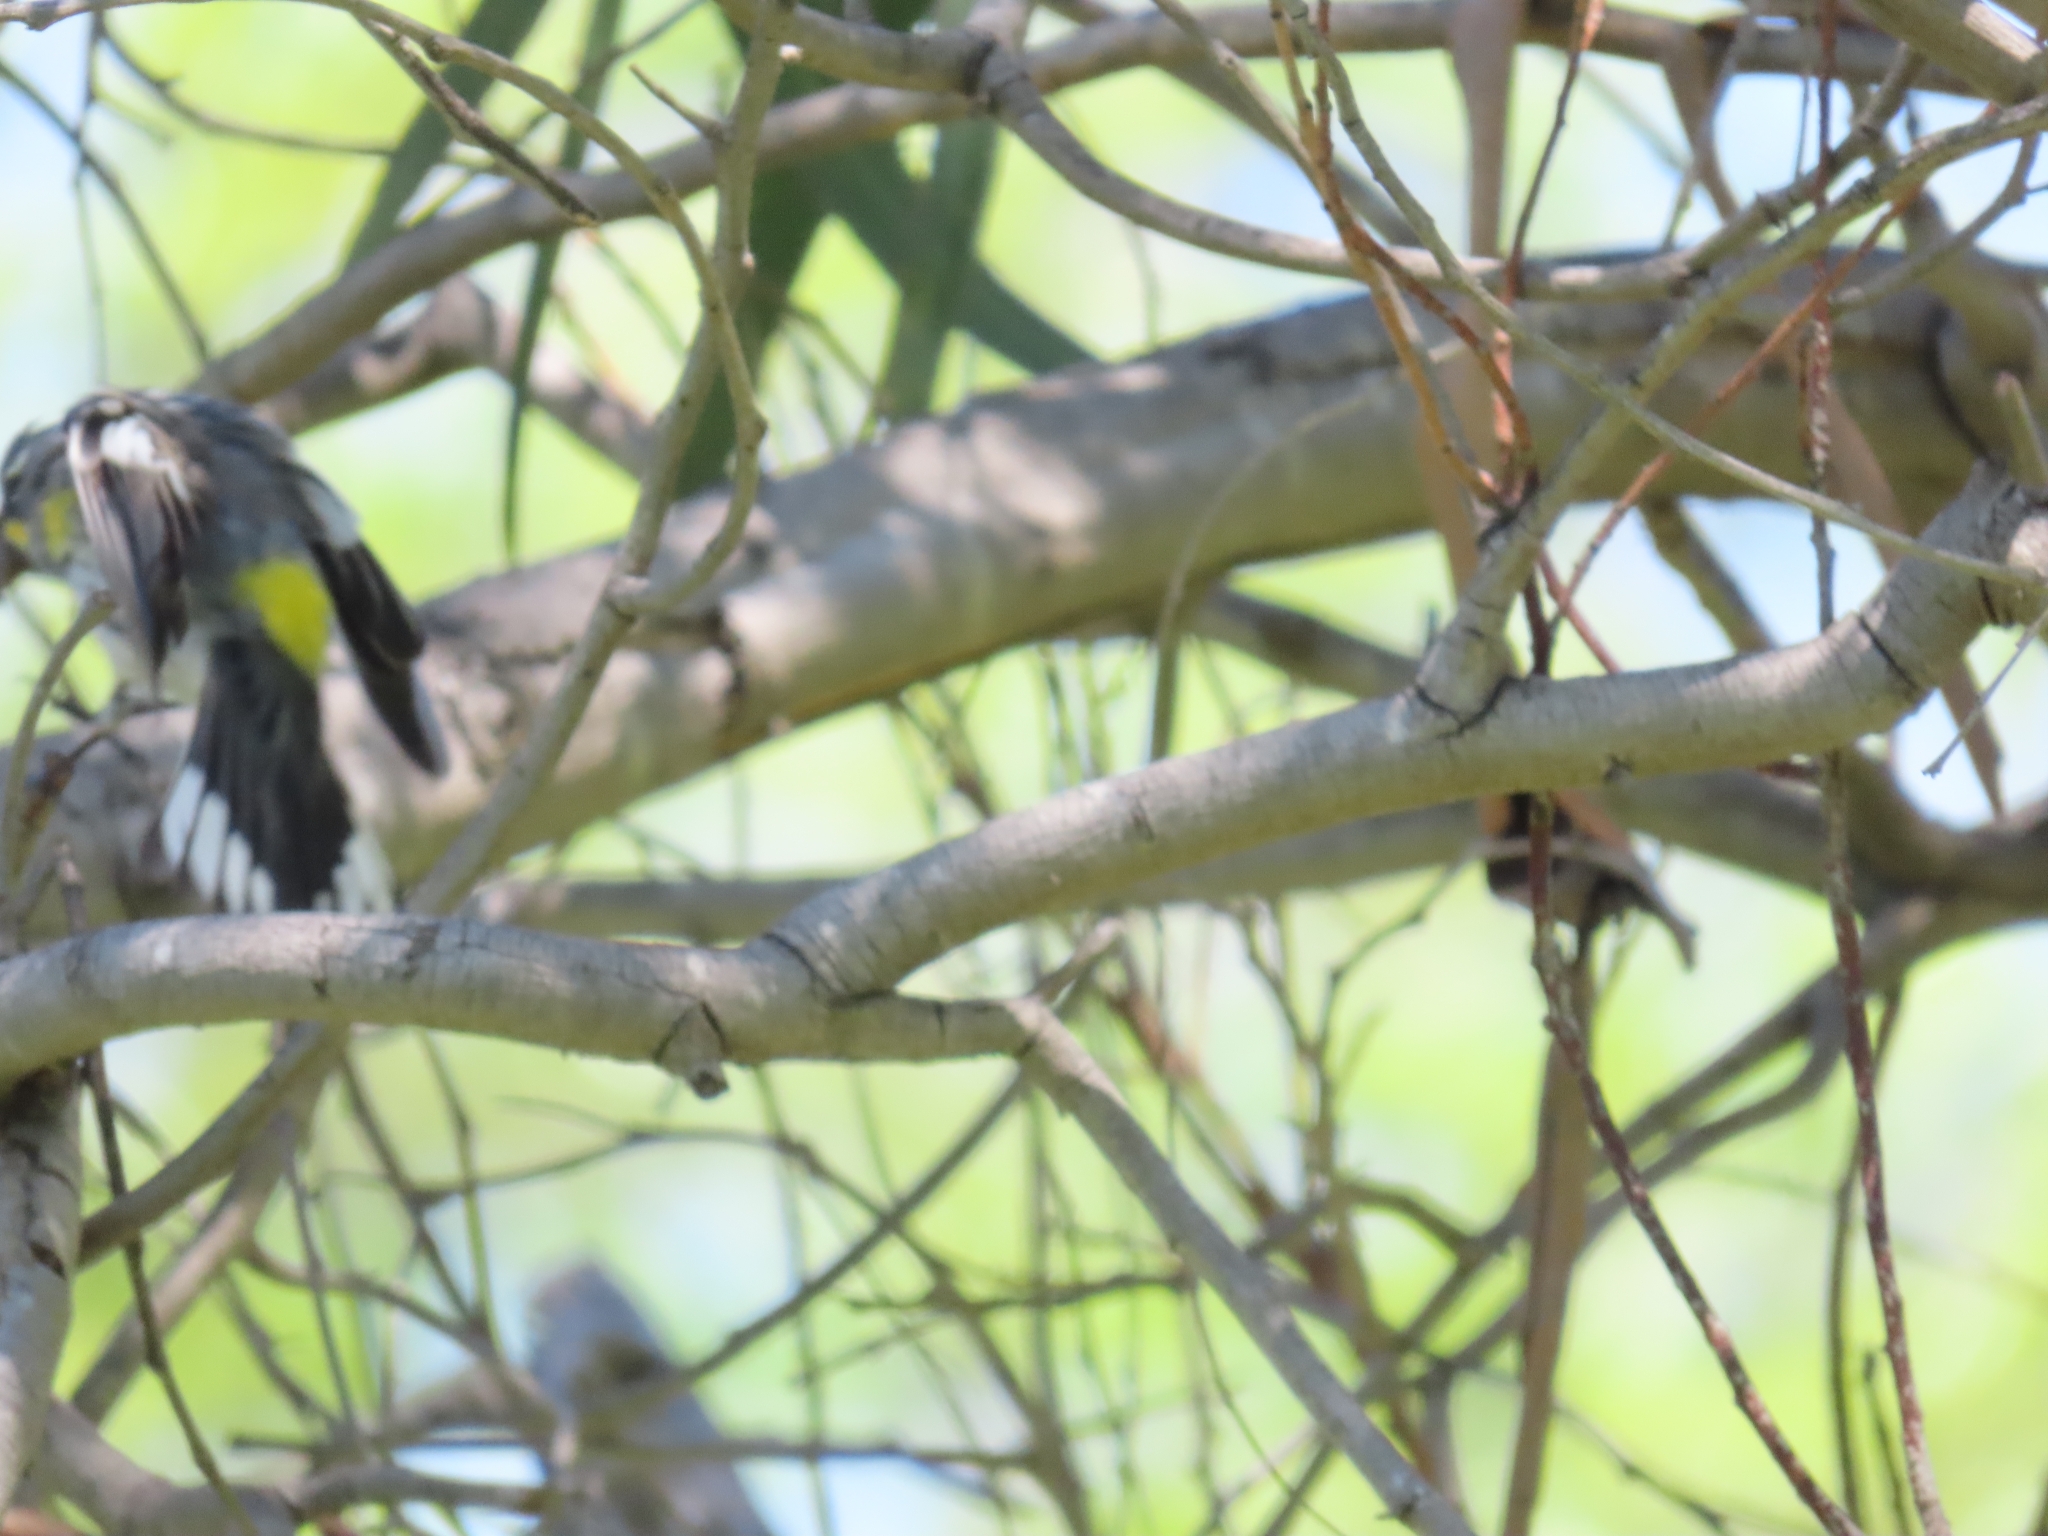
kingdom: Animalia
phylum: Chordata
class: Aves
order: Passeriformes
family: Parulidae
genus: Setophaga
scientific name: Setophaga auduboni
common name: Audubon's warbler
